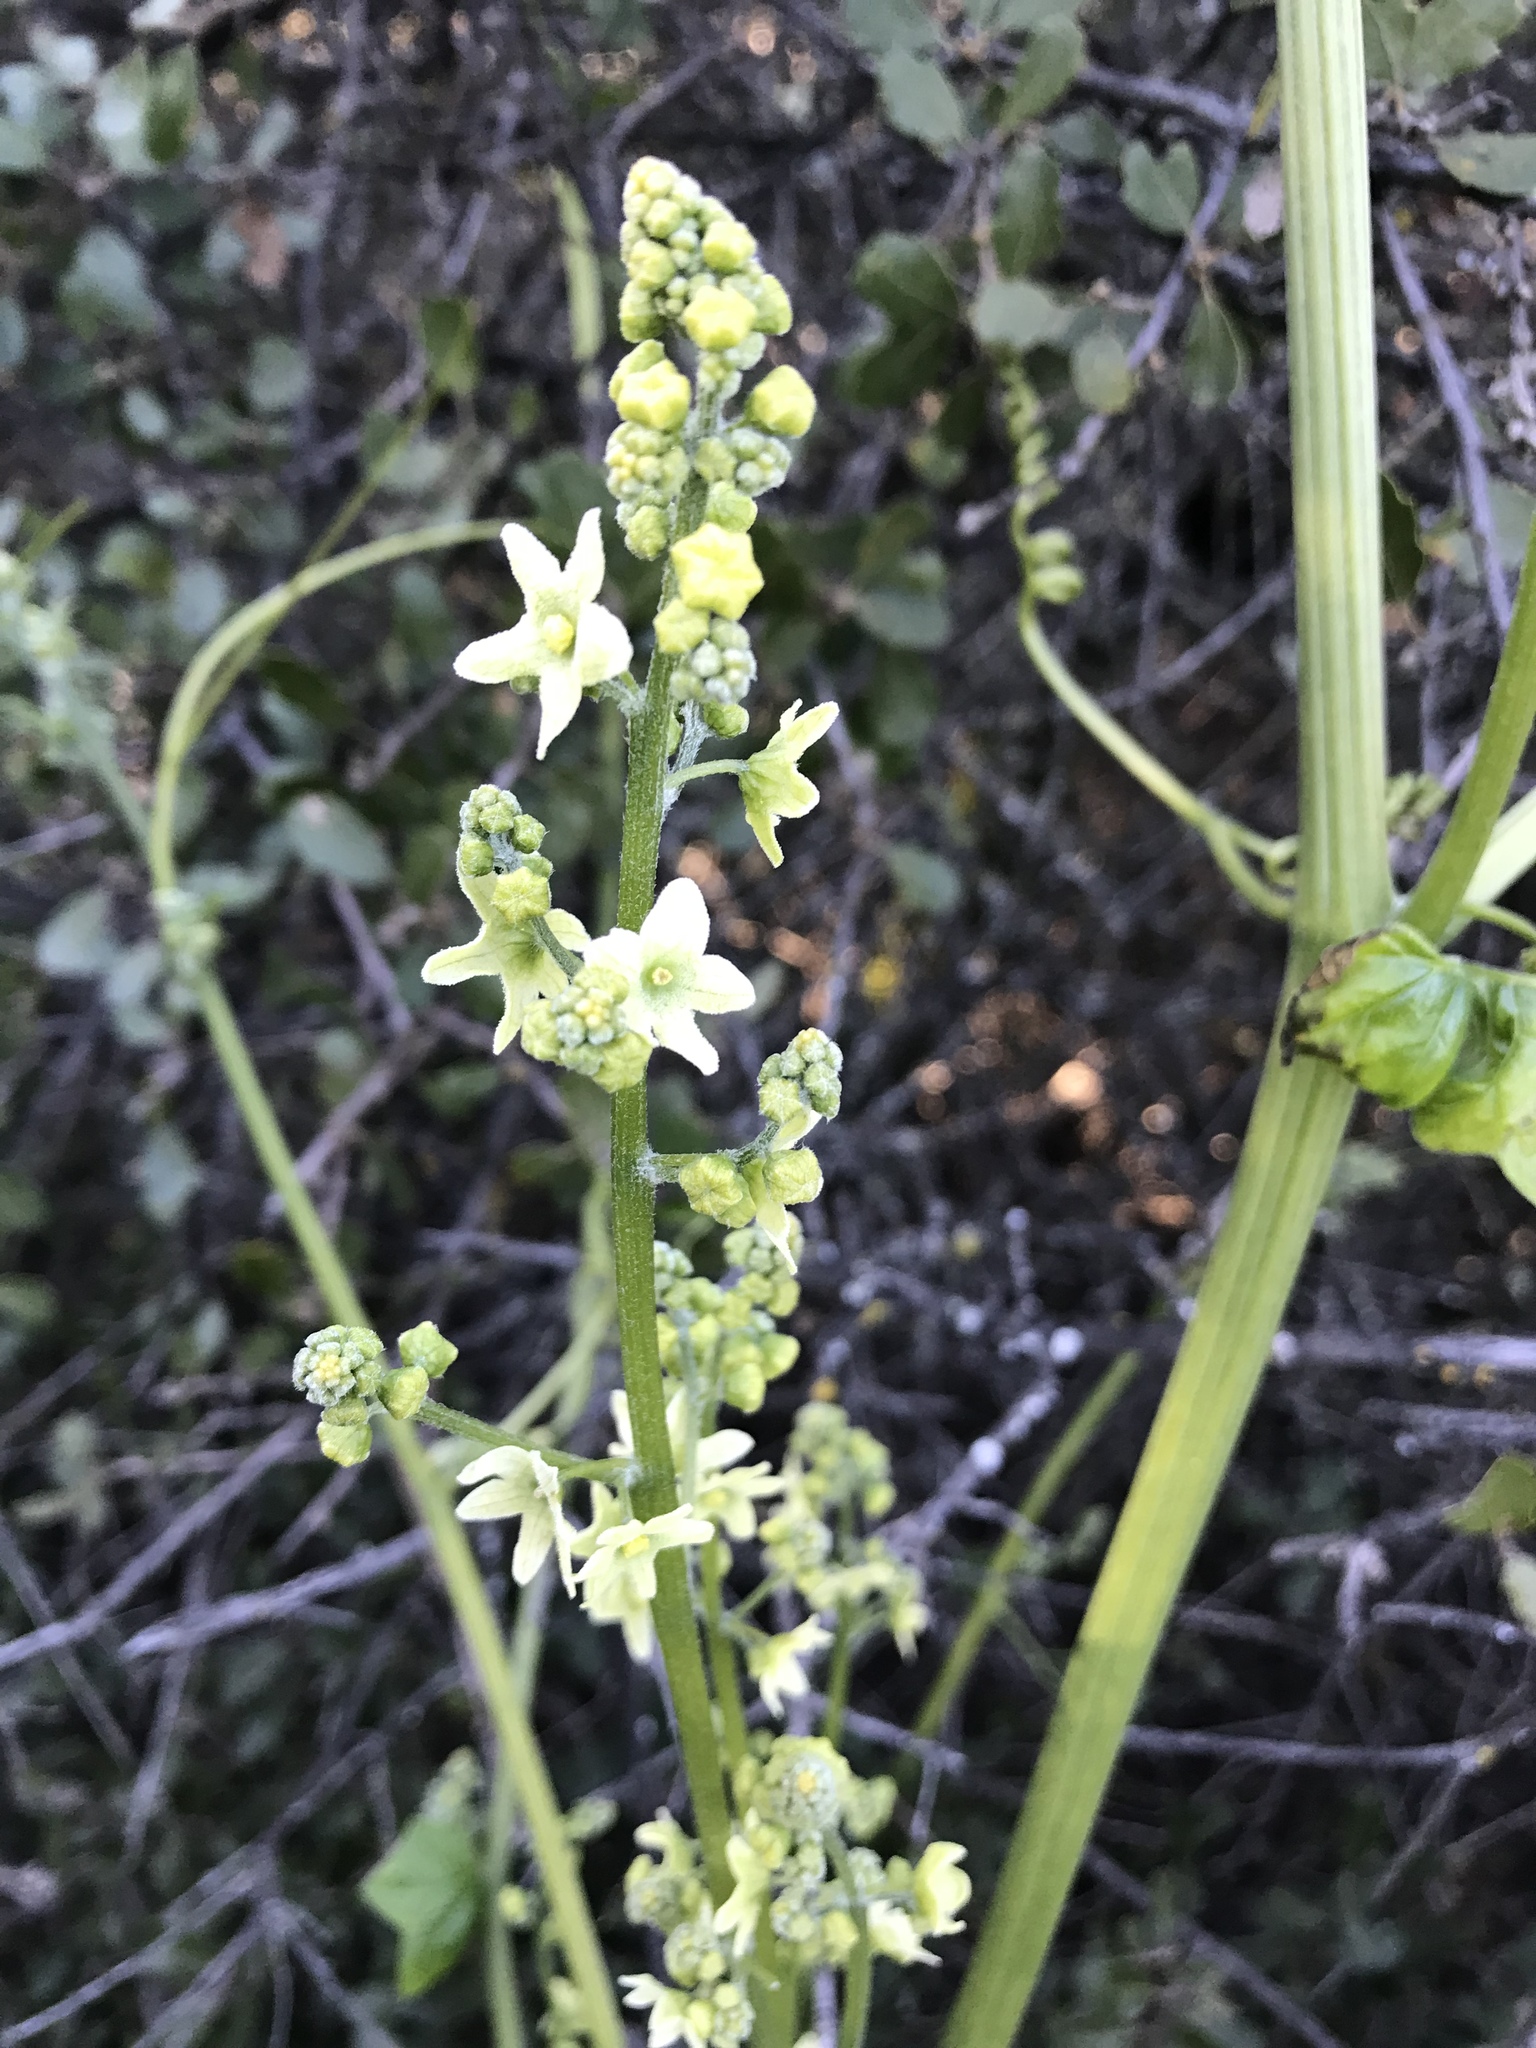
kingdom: Plantae
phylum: Tracheophyta
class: Magnoliopsida
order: Cucurbitales
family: Cucurbitaceae
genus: Marah
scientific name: Marah fabacea
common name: California manroot
